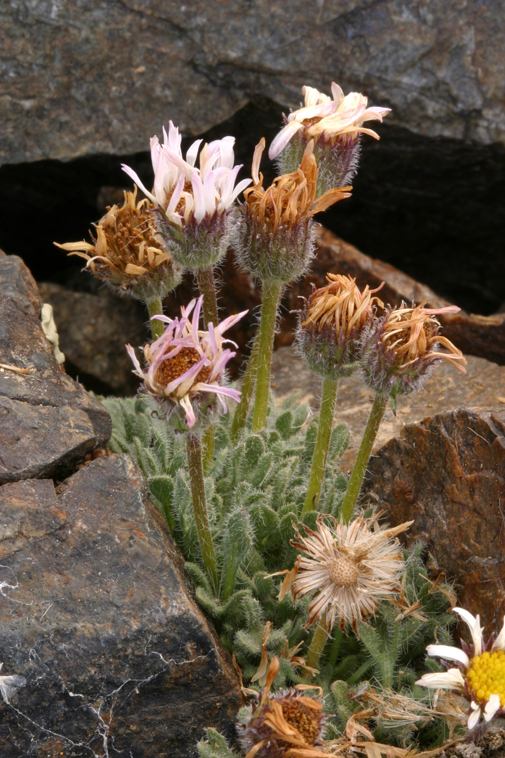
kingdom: Plantae
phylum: Tracheophyta
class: Magnoliopsida
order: Asterales
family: Asteraceae
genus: Erigeron
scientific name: Erigeron vagus
